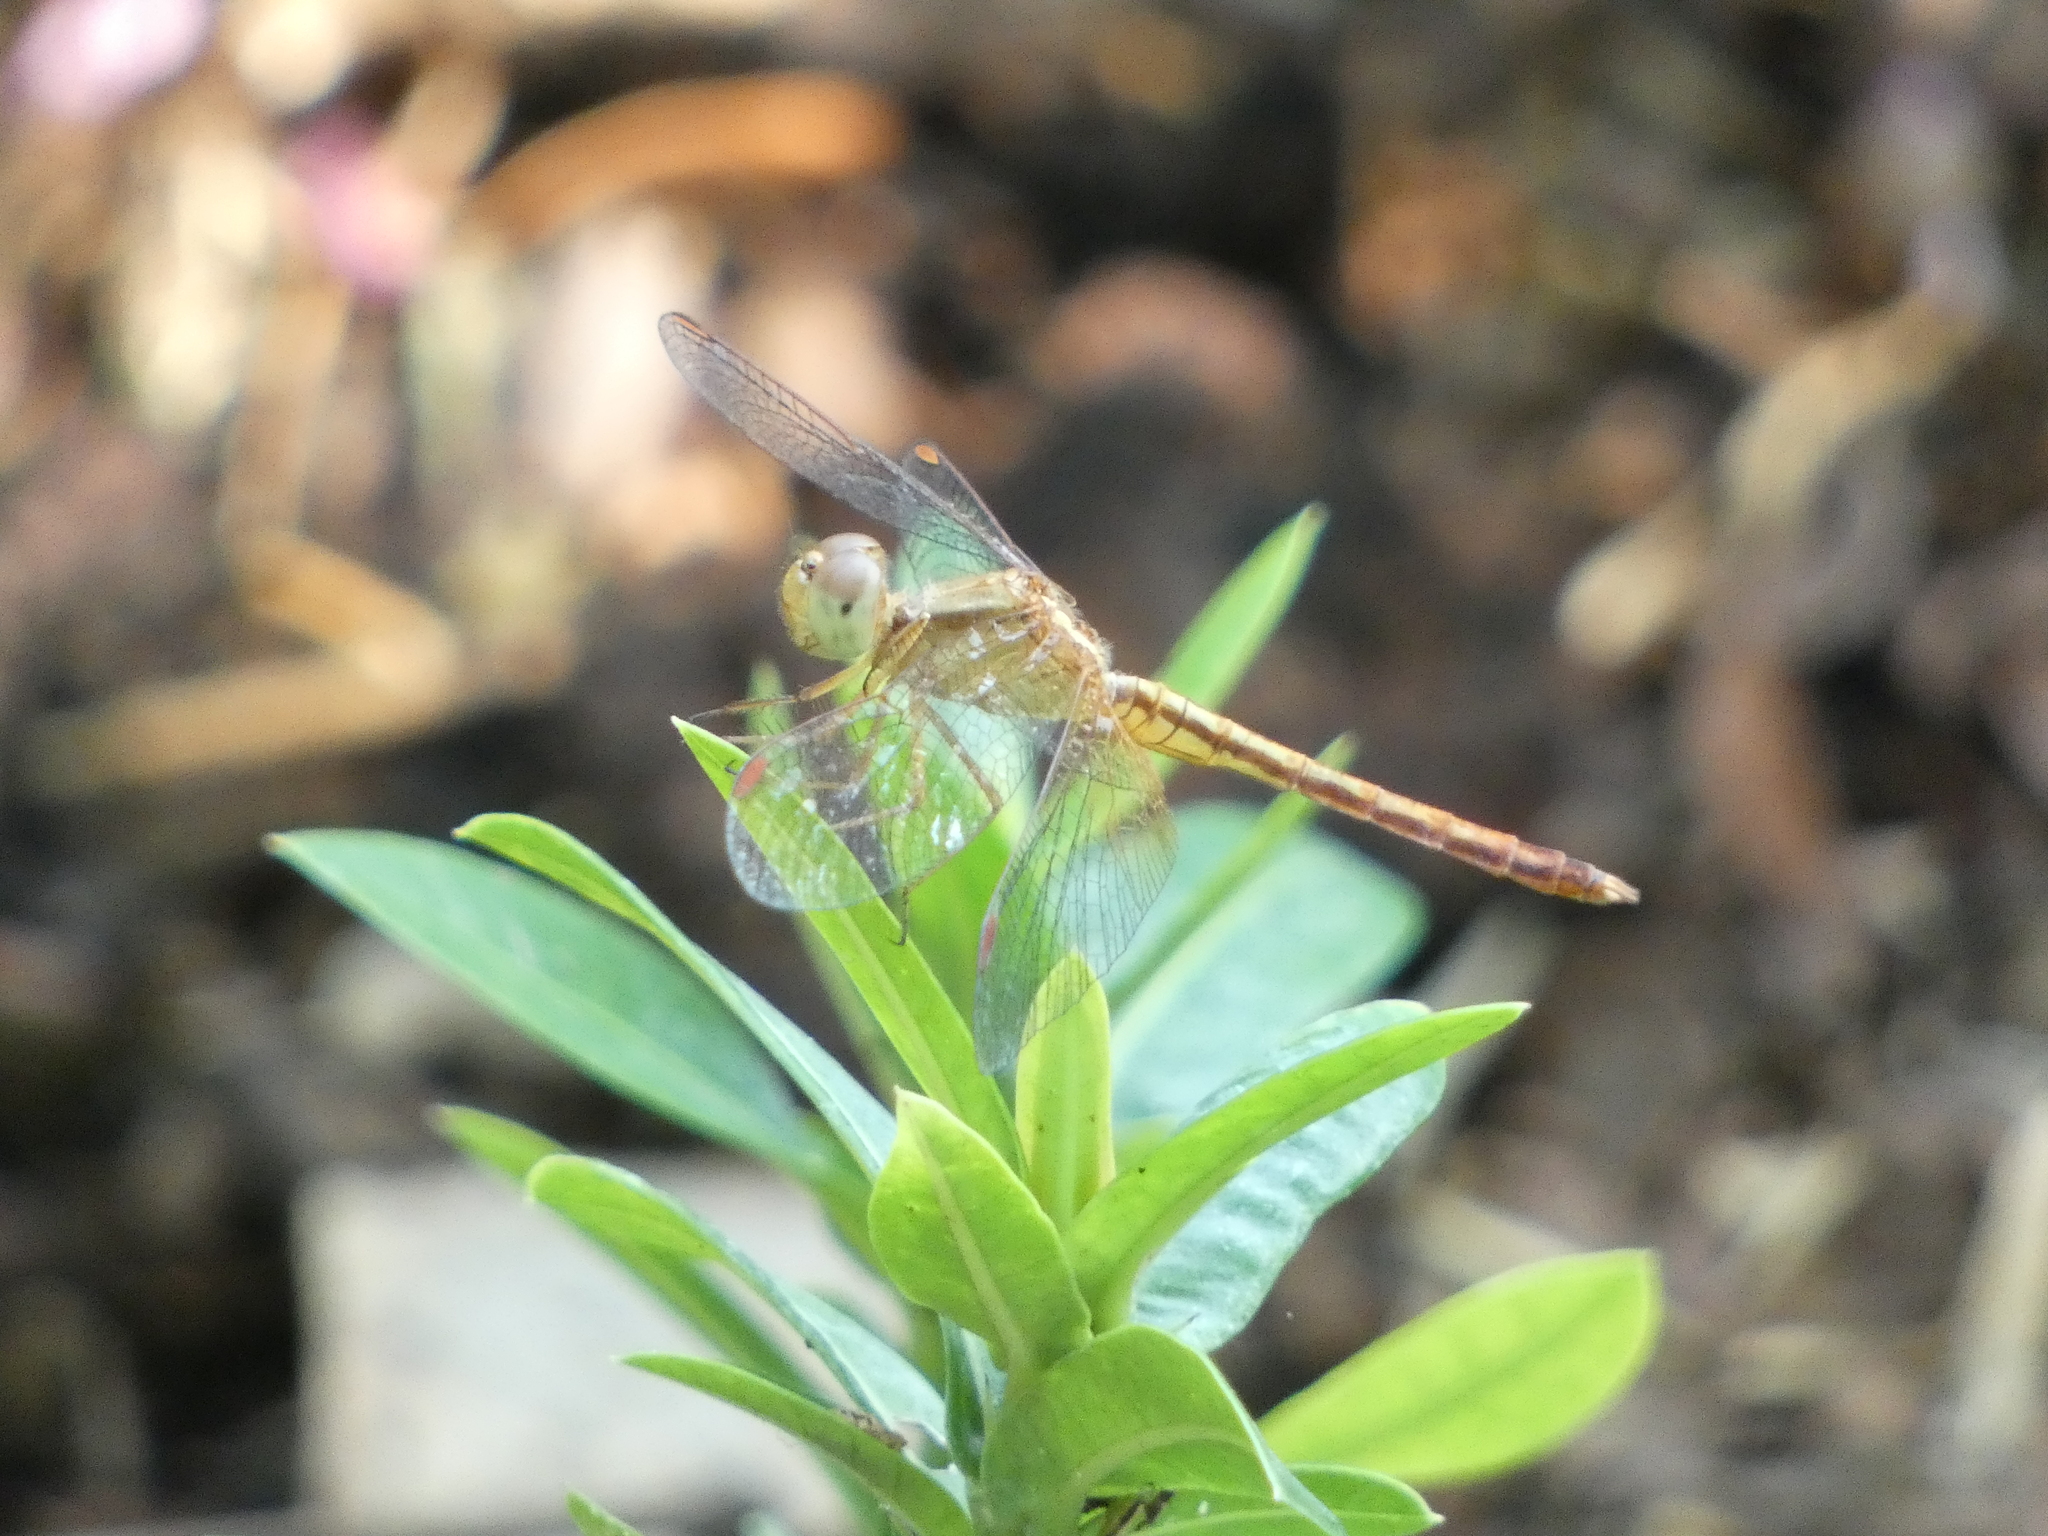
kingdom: Animalia
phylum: Arthropoda
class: Insecta
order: Odonata
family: Libellulidae
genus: Neurothemis
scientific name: Neurothemis intermedia
